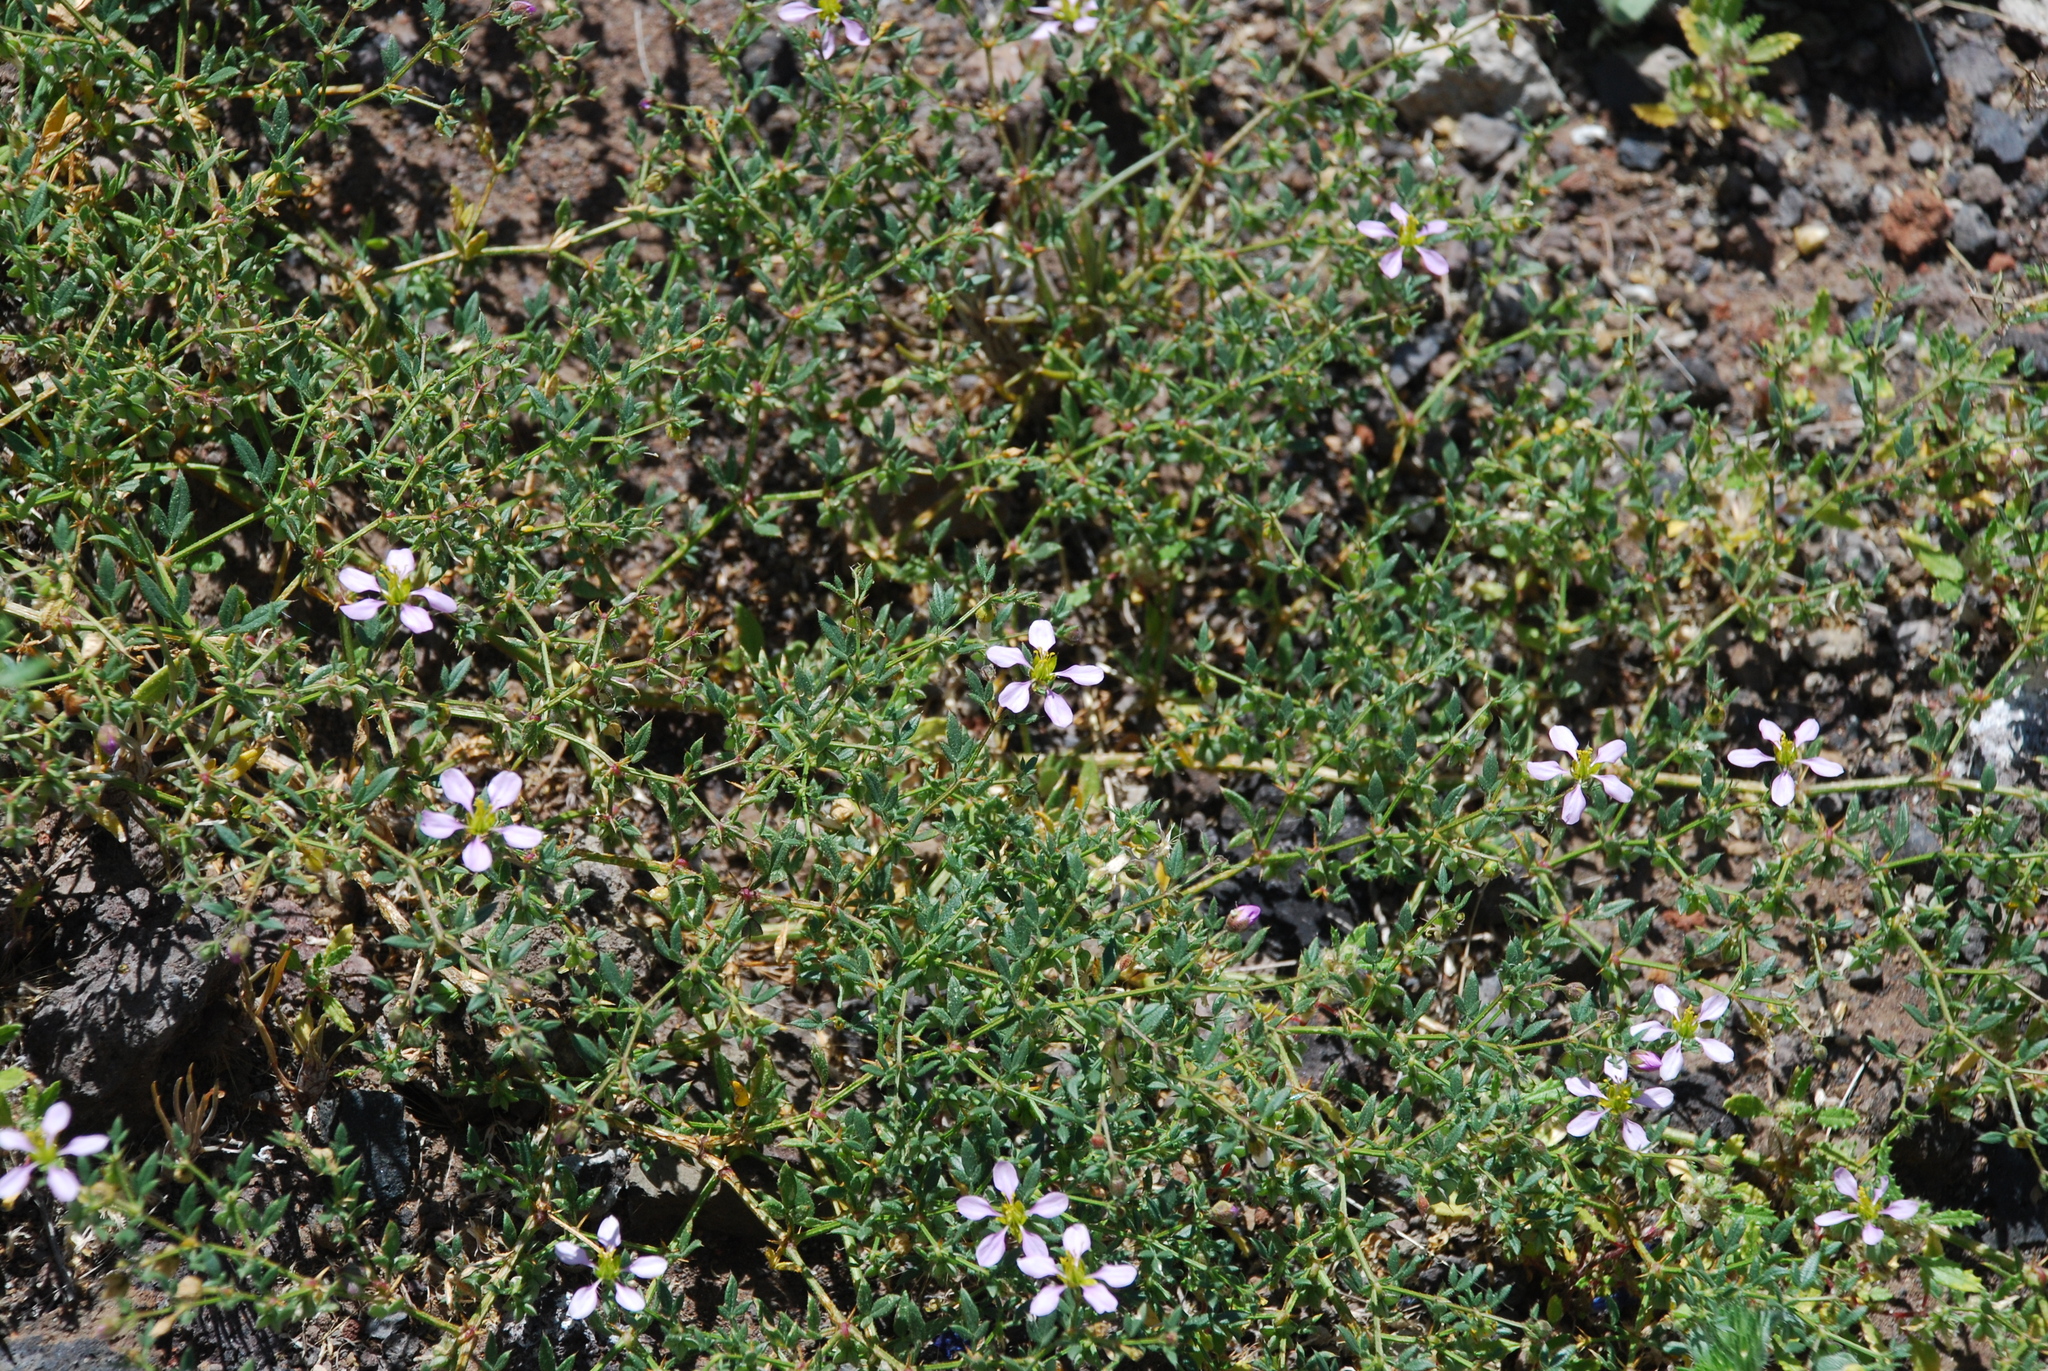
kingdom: Plantae
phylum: Tracheophyta
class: Magnoliopsida
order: Zygophyllales
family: Zygophyllaceae
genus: Fagonia
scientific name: Fagonia cretica
